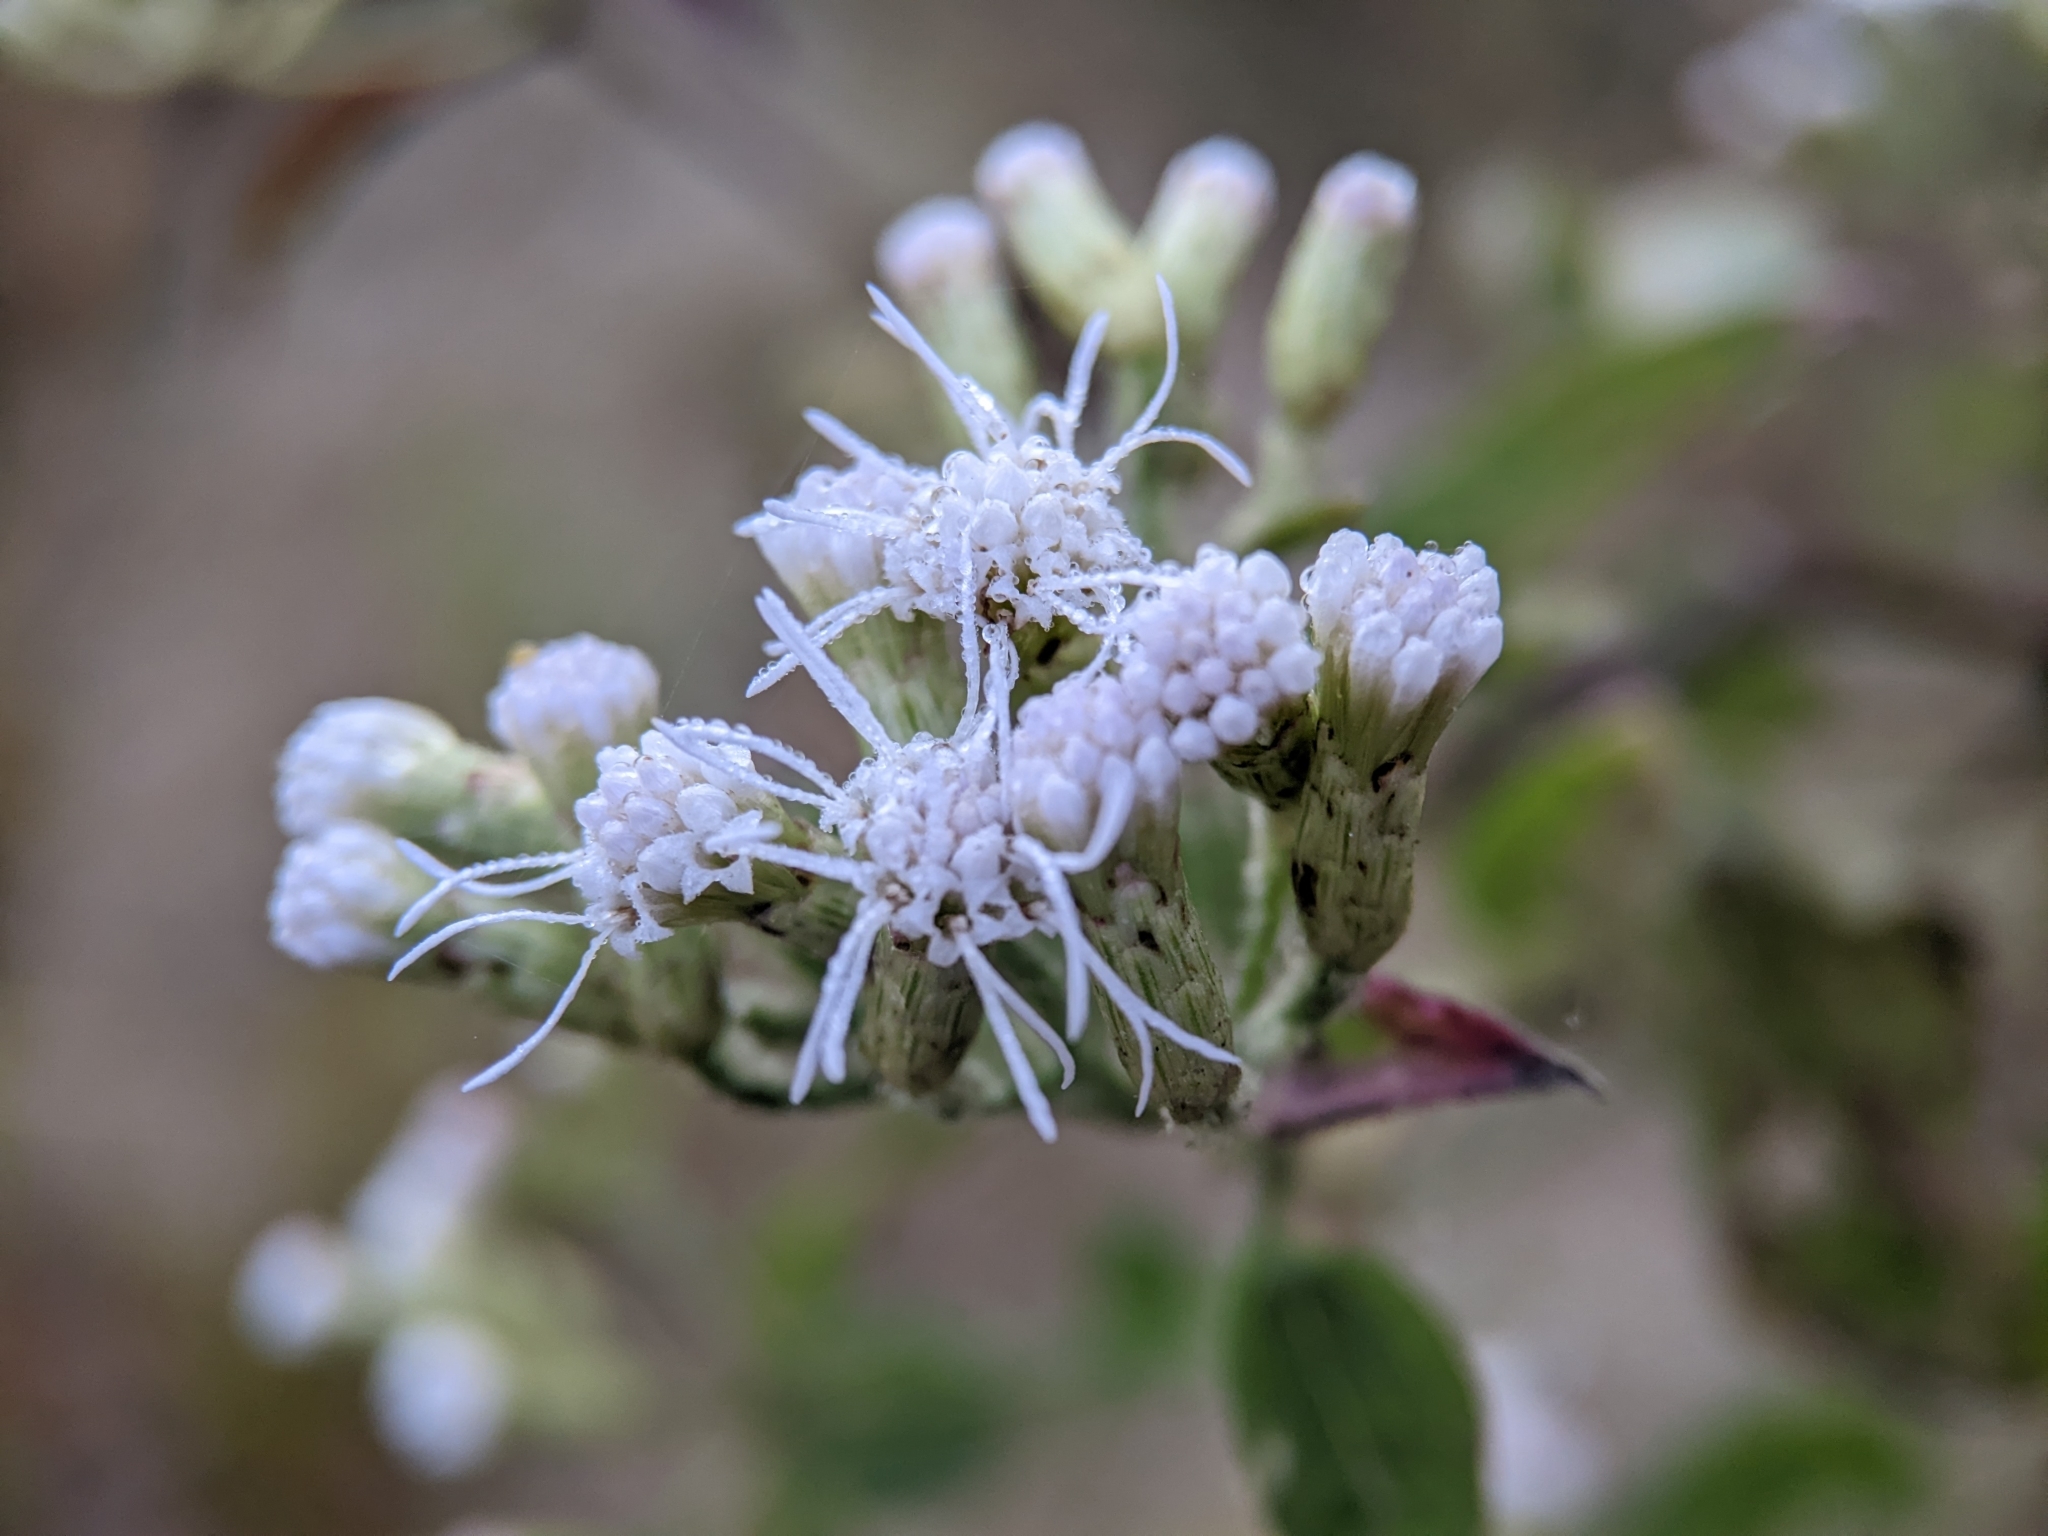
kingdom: Plantae
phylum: Tracheophyta
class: Magnoliopsida
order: Asterales
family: Asteraceae
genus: Chromolaena
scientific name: Chromolaena odorata
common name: Siamweed
